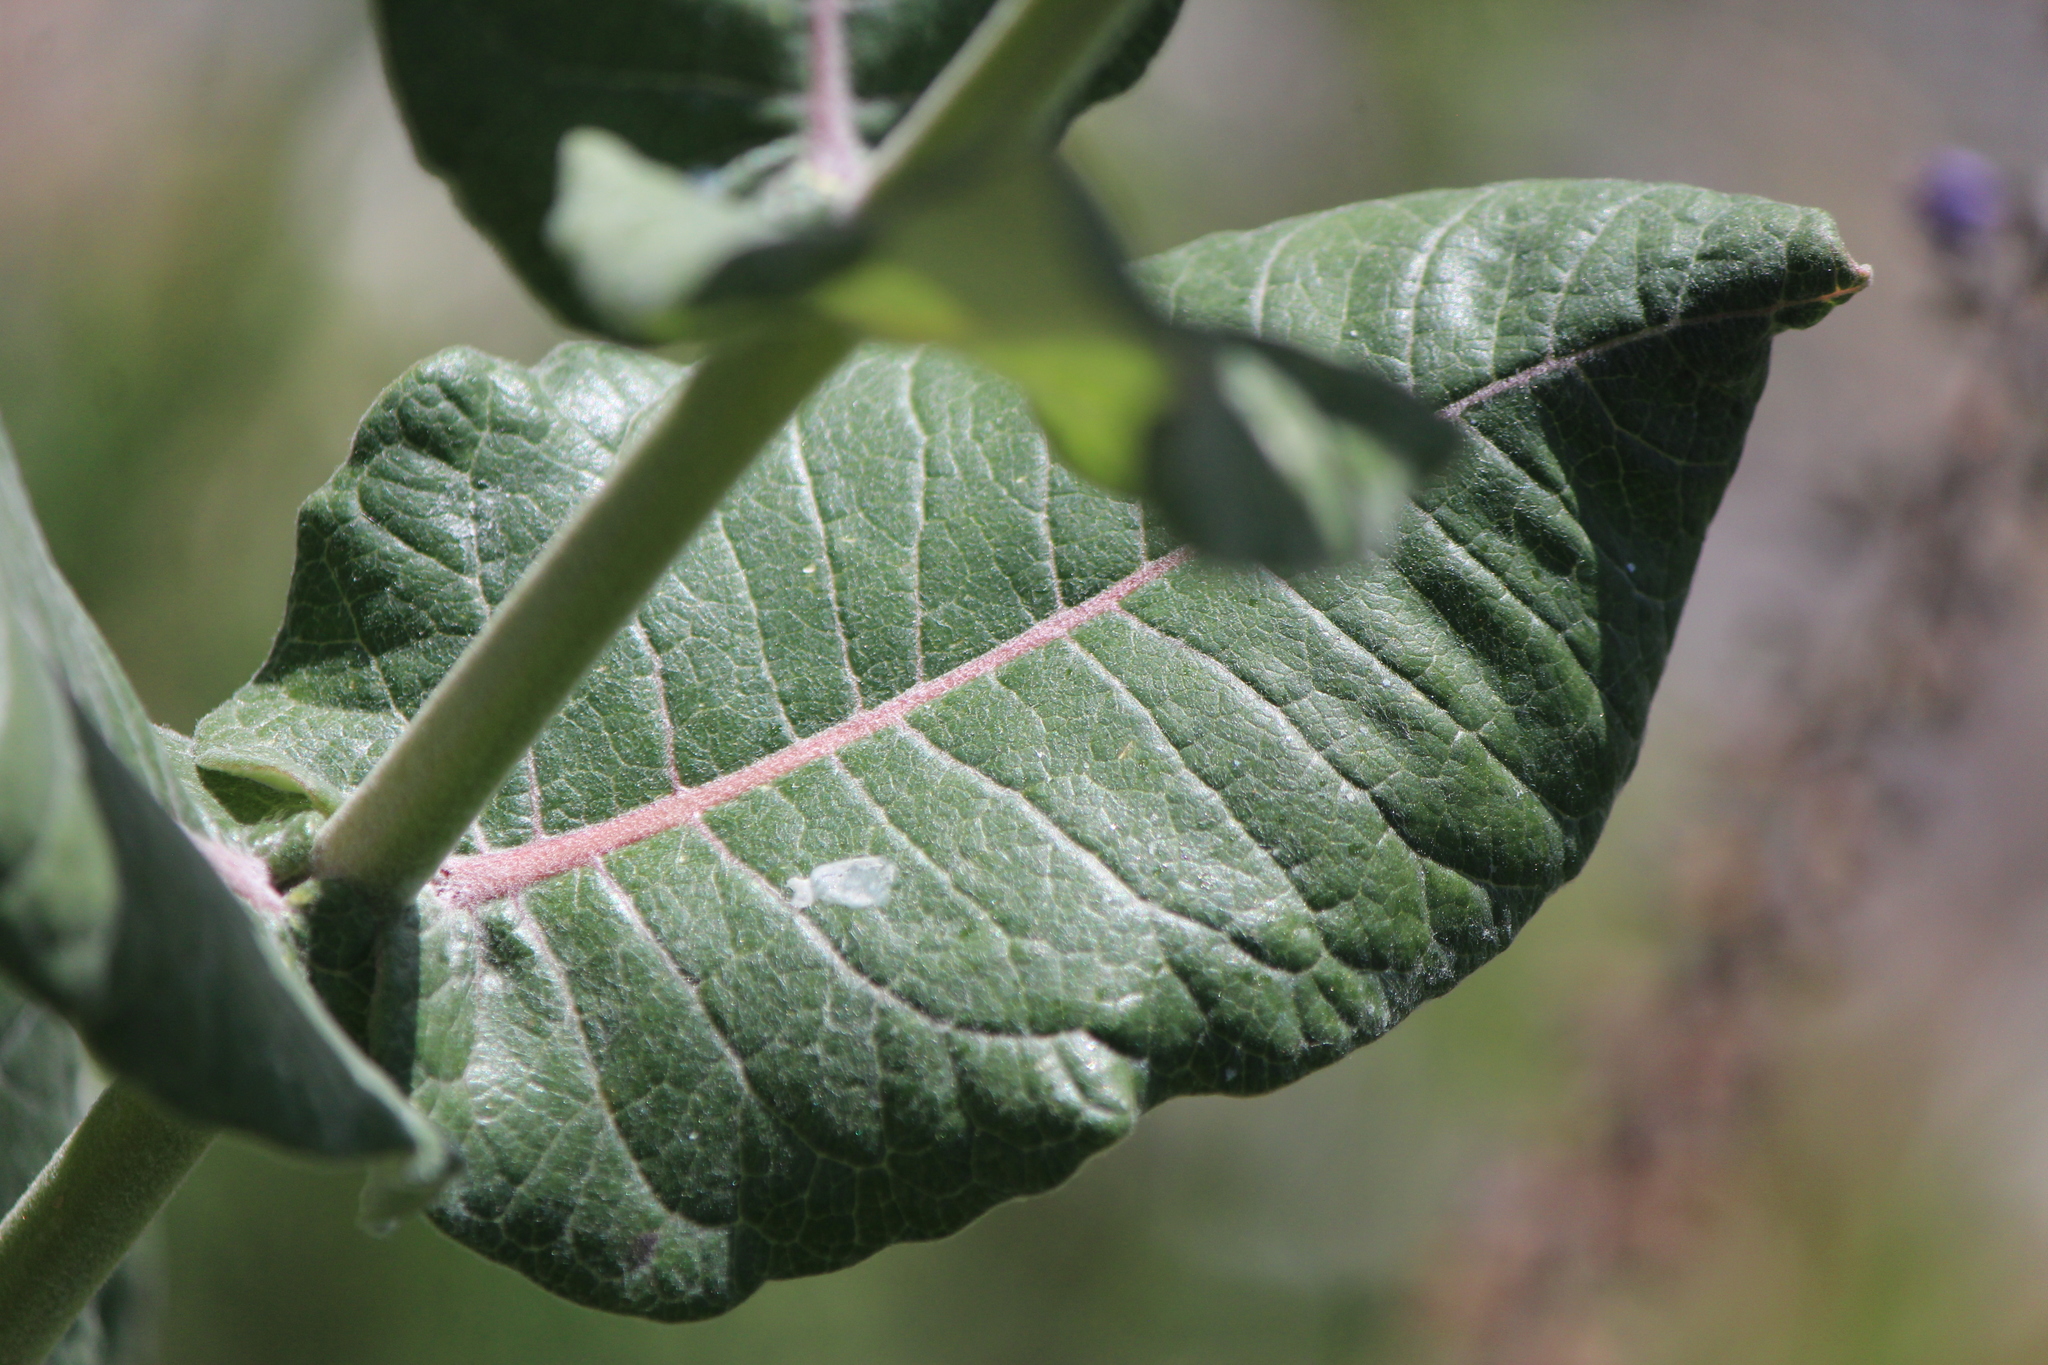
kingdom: Plantae
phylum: Tracheophyta
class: Magnoliopsida
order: Gentianales
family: Apocynaceae
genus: Asclepias
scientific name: Asclepias otarioides
